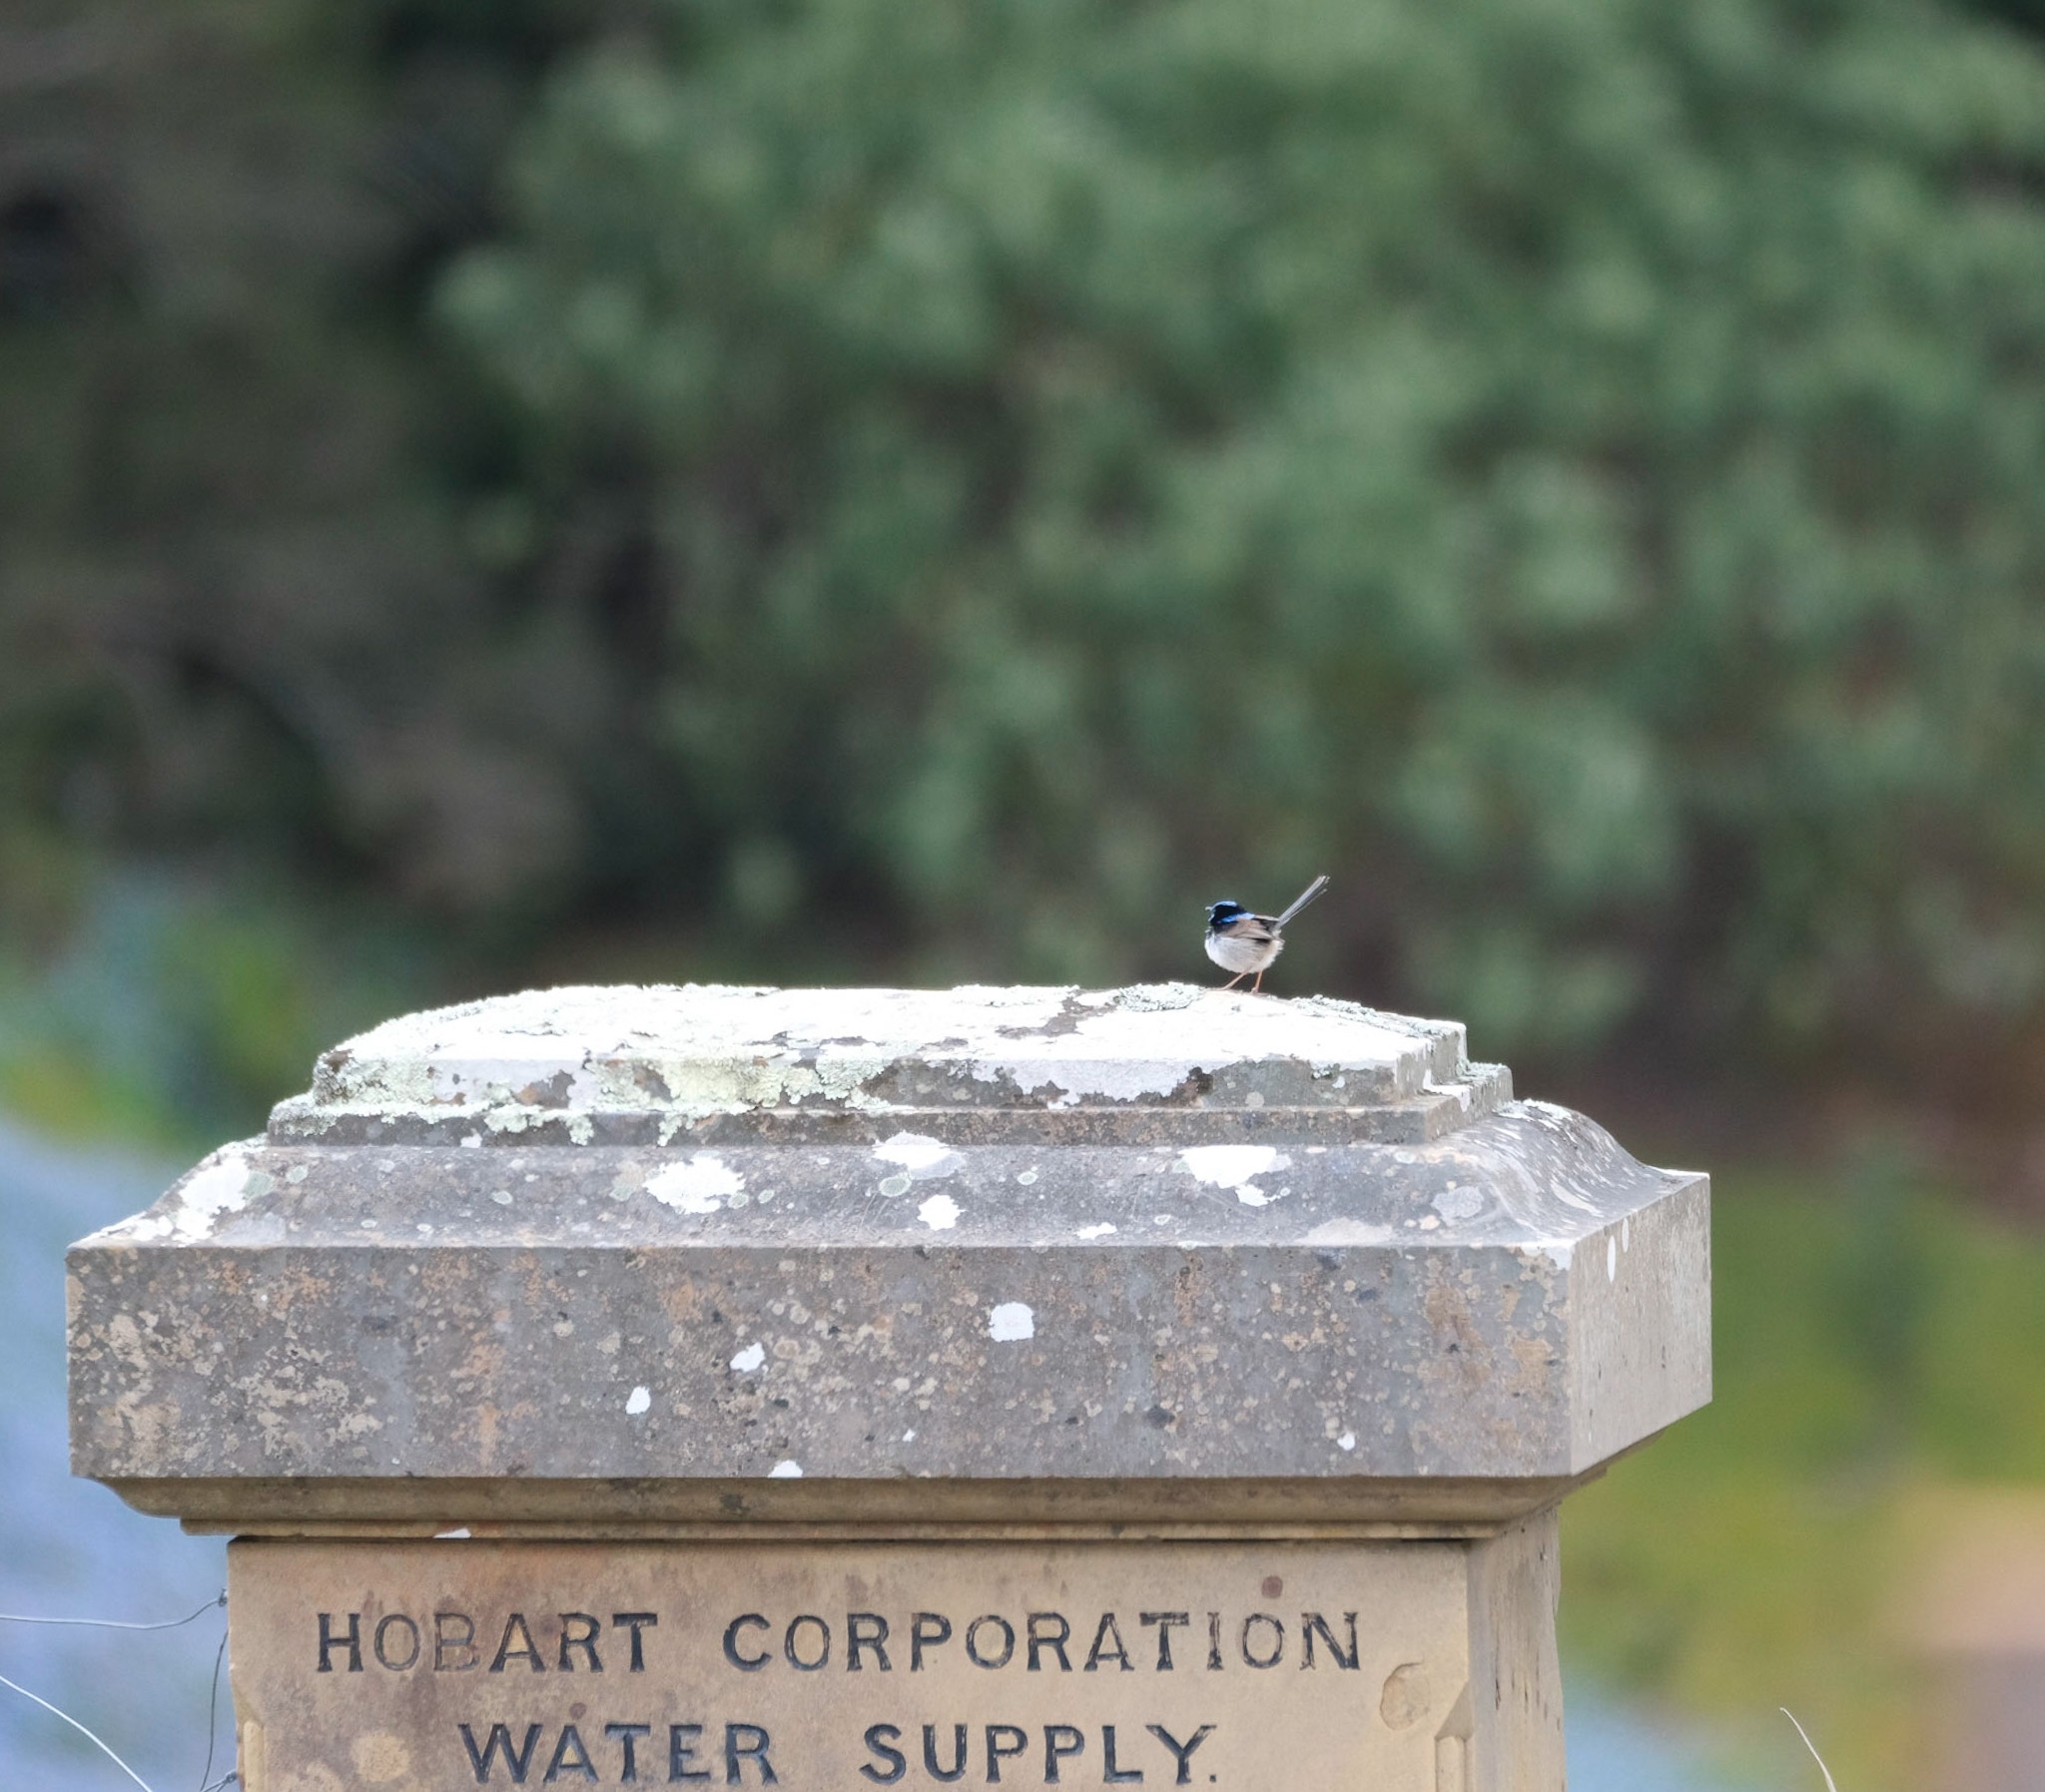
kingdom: Animalia
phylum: Chordata
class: Aves
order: Passeriformes
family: Maluridae
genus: Malurus
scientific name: Malurus cyaneus
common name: Superb fairywren
